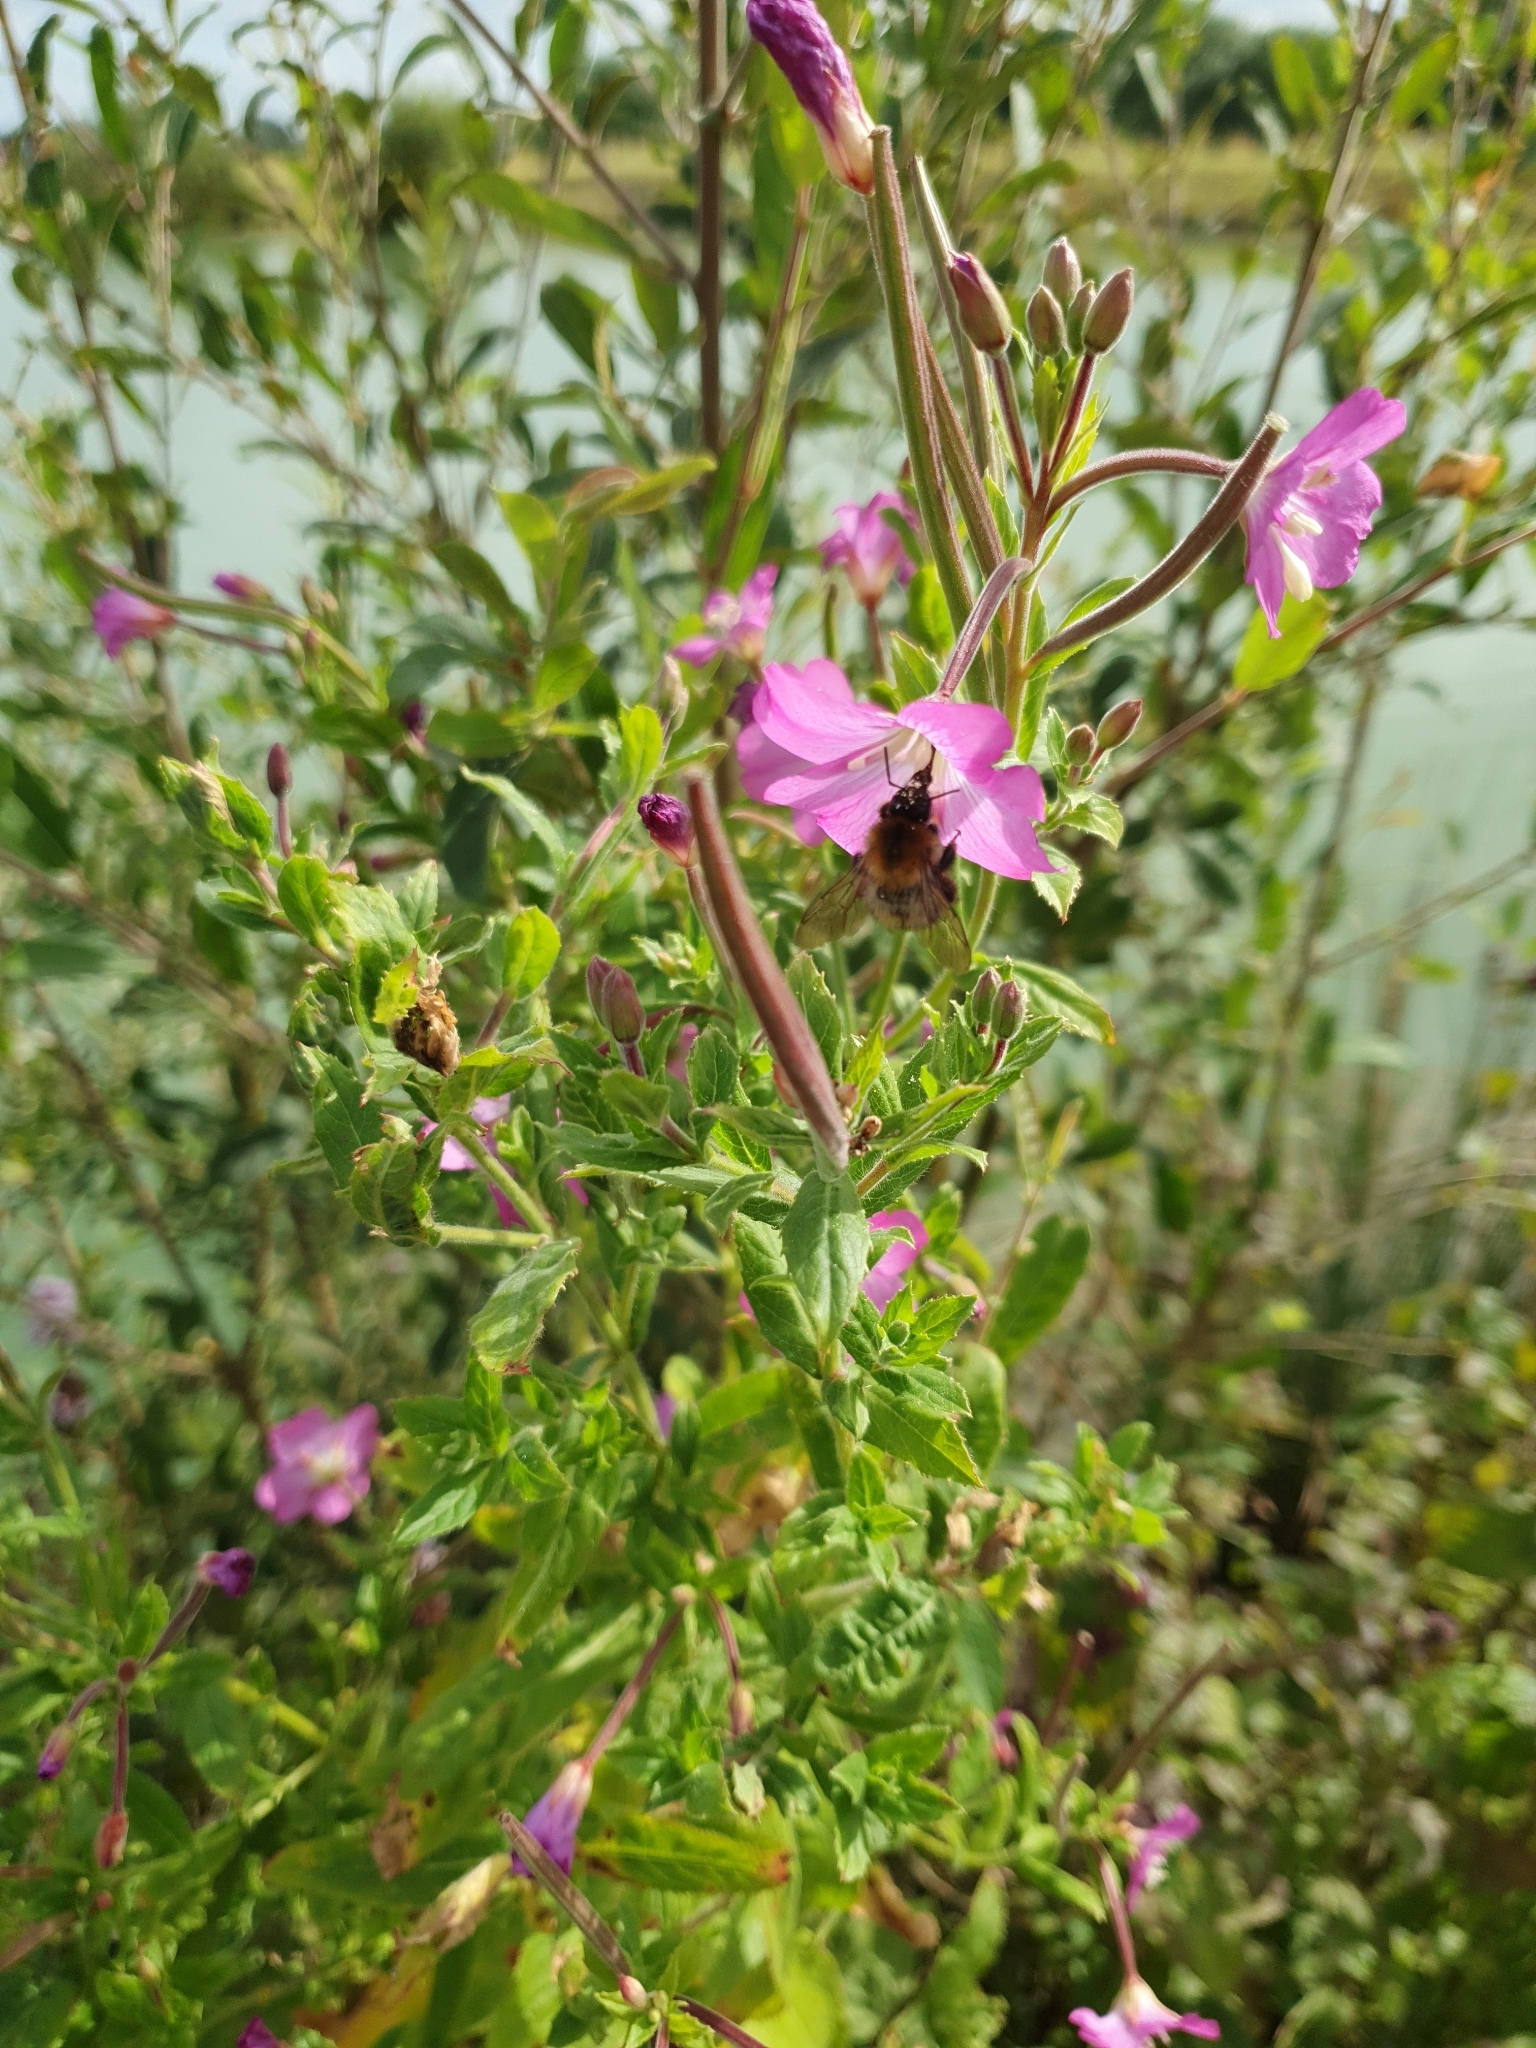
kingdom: Plantae
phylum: Tracheophyta
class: Magnoliopsida
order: Myrtales
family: Onagraceae
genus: Epilobium
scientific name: Epilobium hirsutum
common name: Great willowherb
